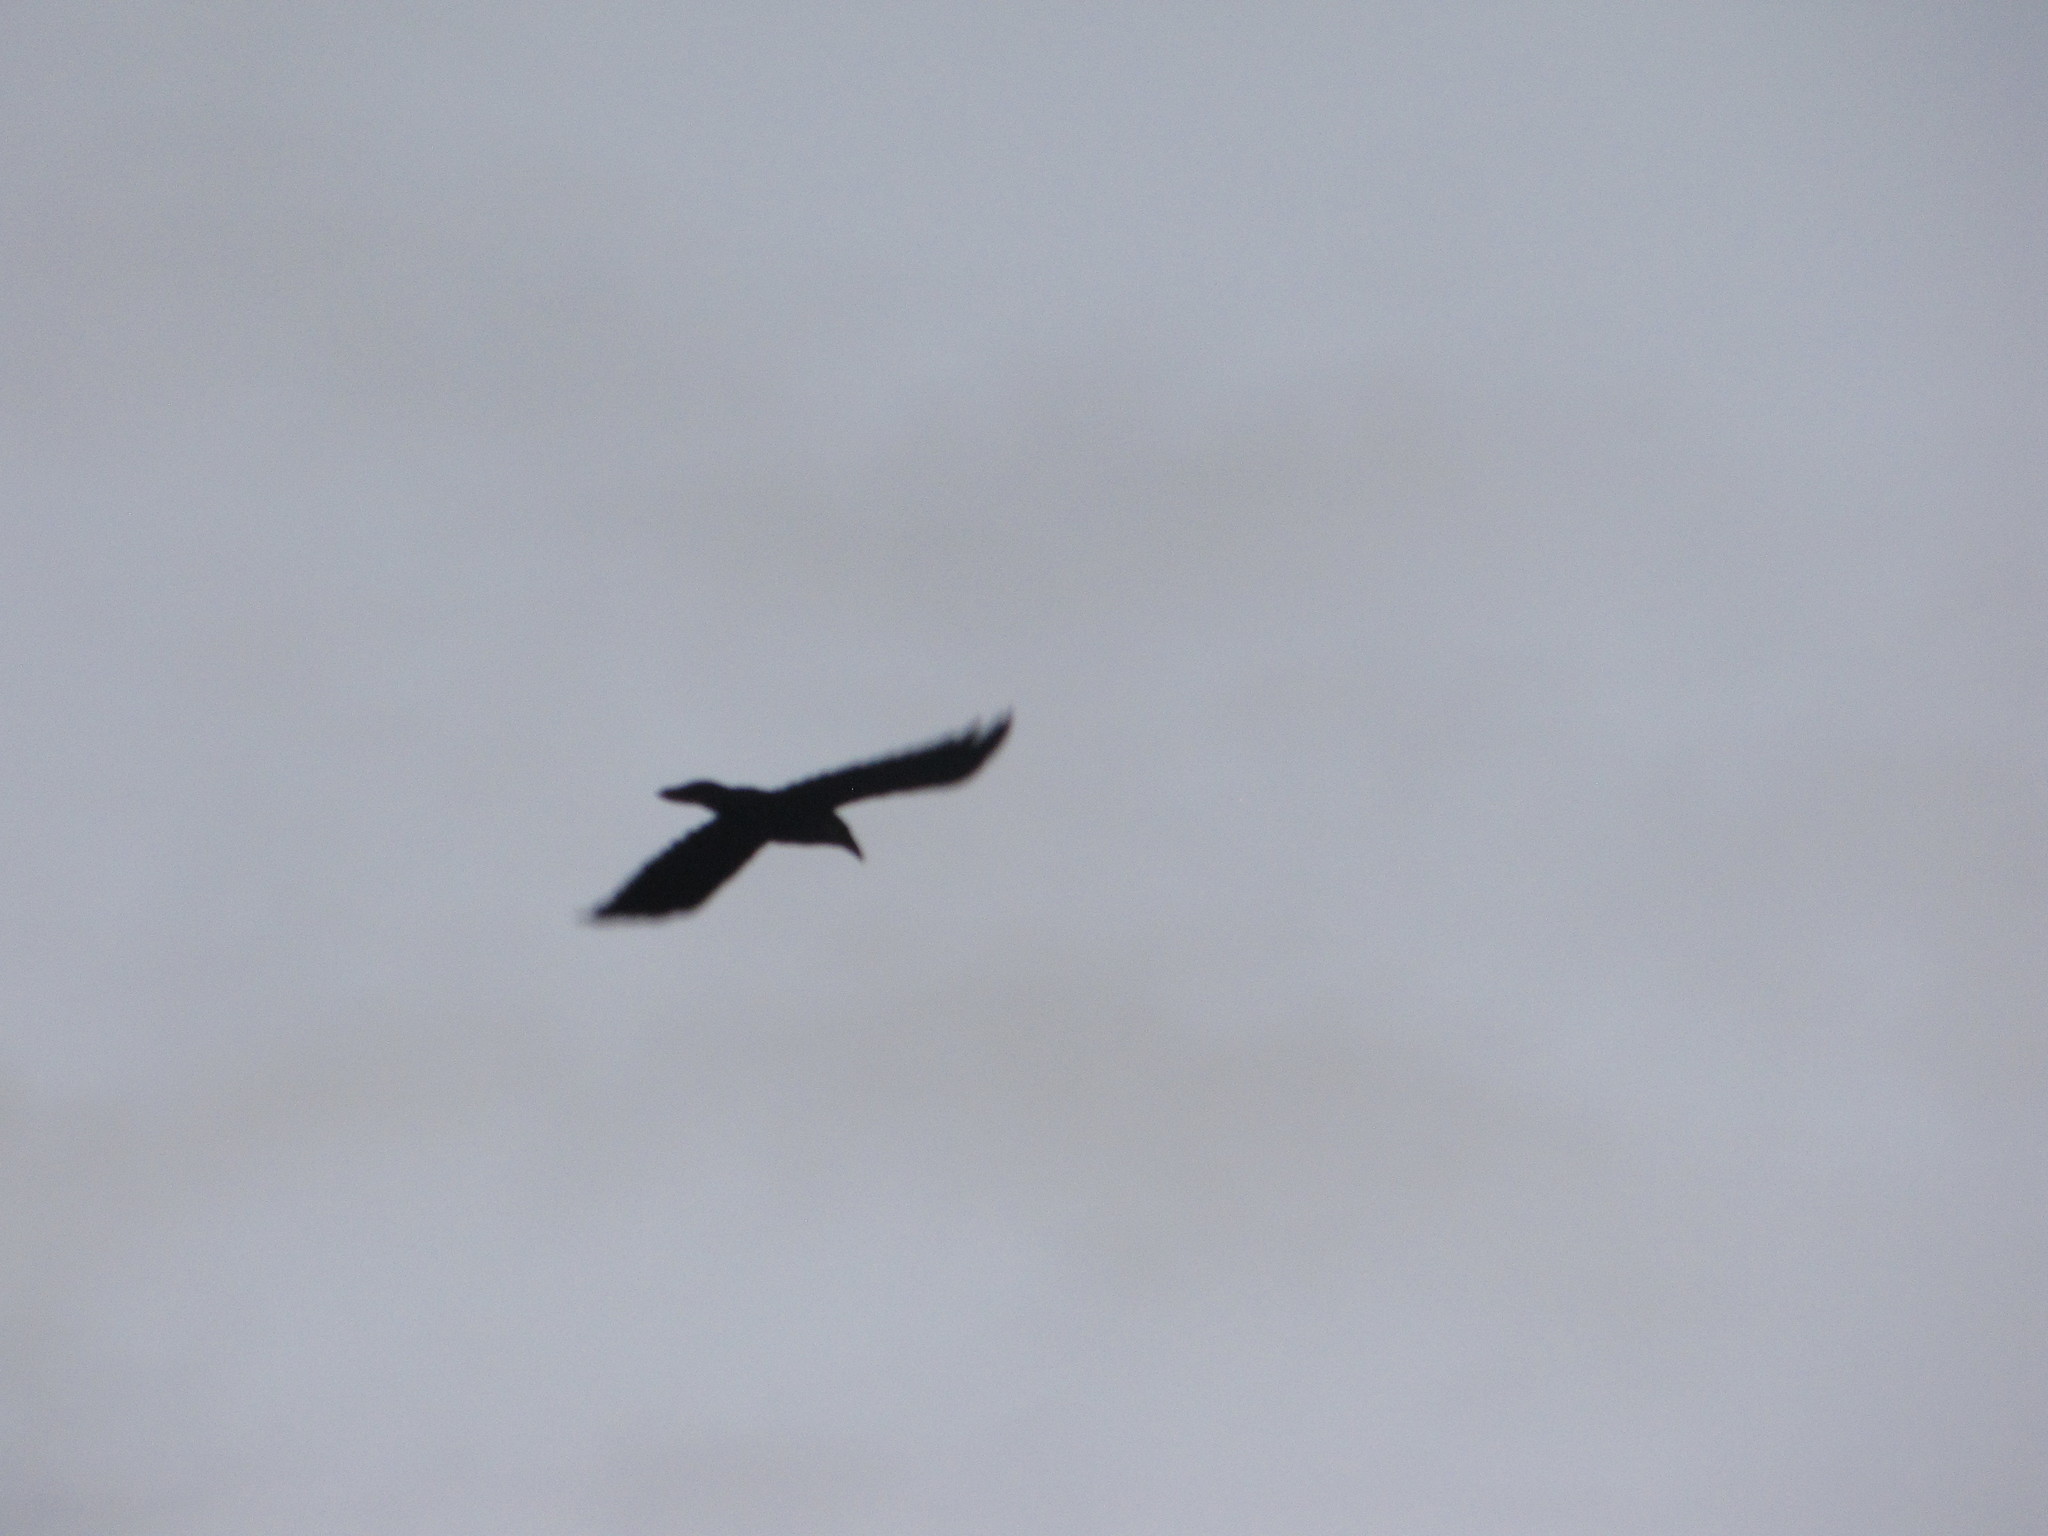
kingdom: Animalia
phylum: Chordata
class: Aves
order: Passeriformes
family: Corvidae
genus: Corvus
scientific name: Corvus corax
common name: Common raven
